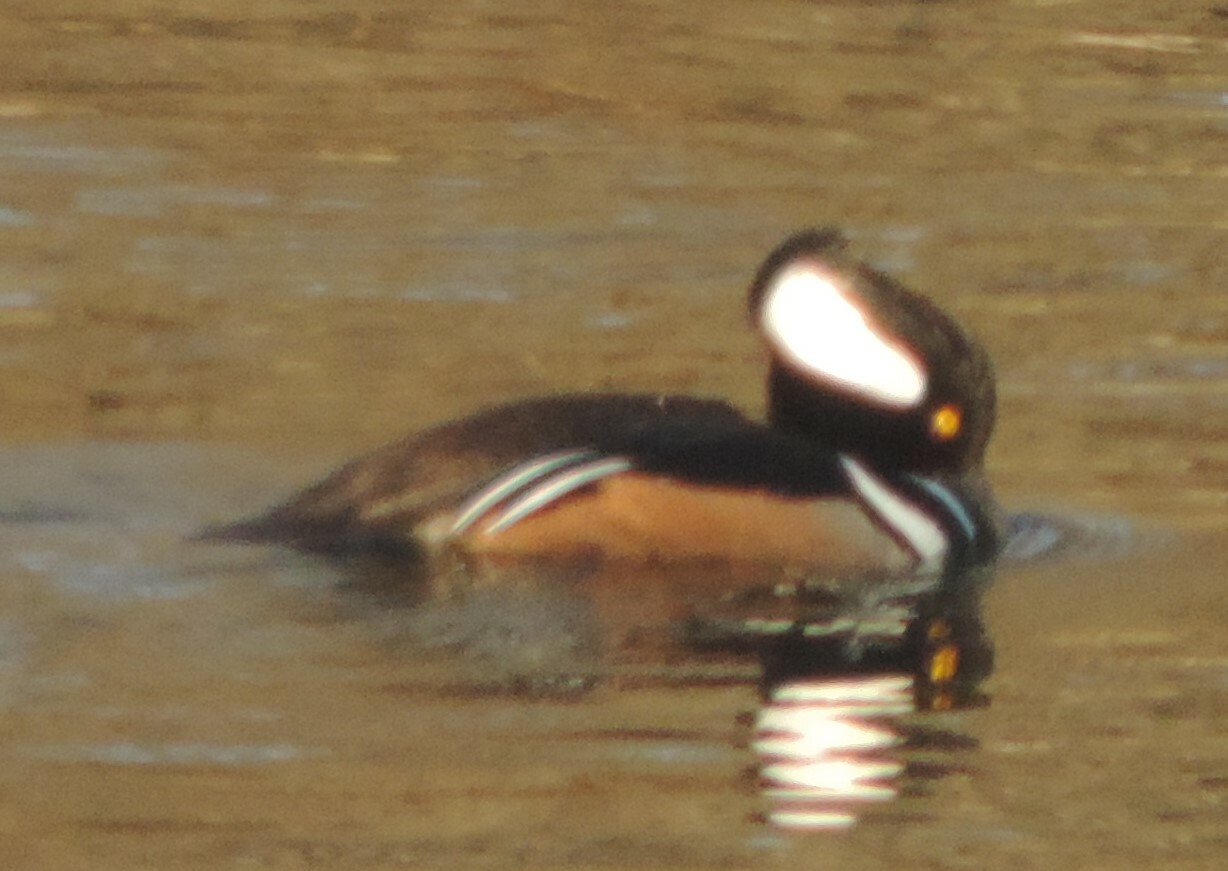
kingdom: Animalia
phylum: Chordata
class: Aves
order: Anseriformes
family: Anatidae
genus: Lophodytes
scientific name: Lophodytes cucullatus
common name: Hooded merganser
